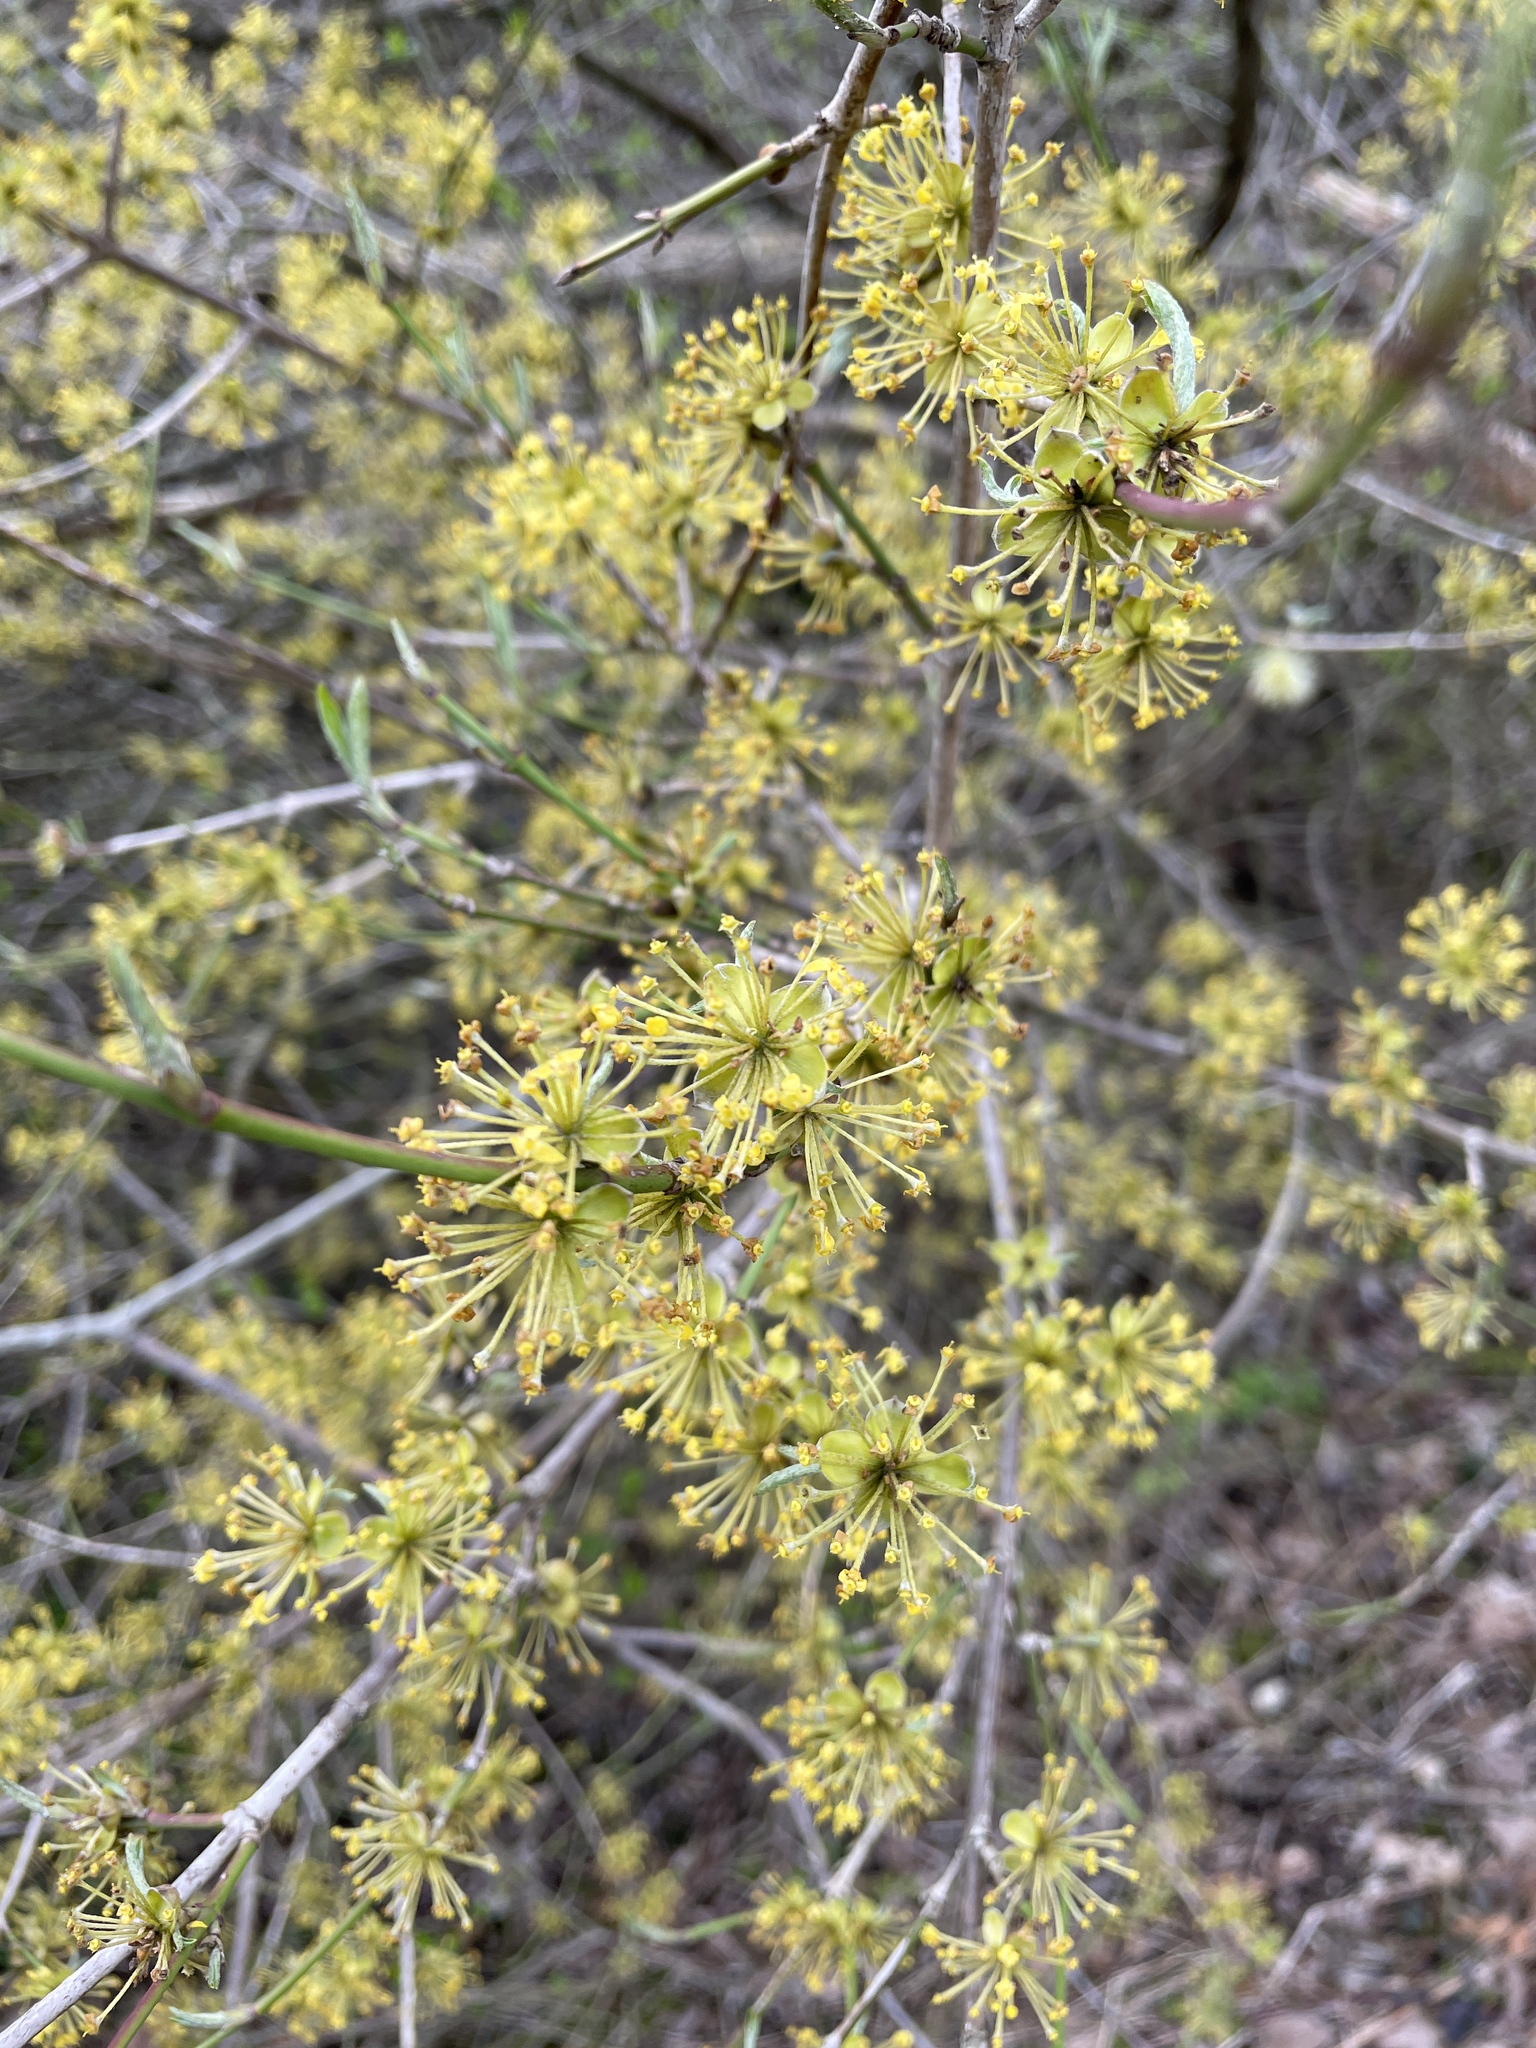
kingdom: Plantae
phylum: Tracheophyta
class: Magnoliopsida
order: Cornales
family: Cornaceae
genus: Cornus
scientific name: Cornus mas
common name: Cornelian-cherry
